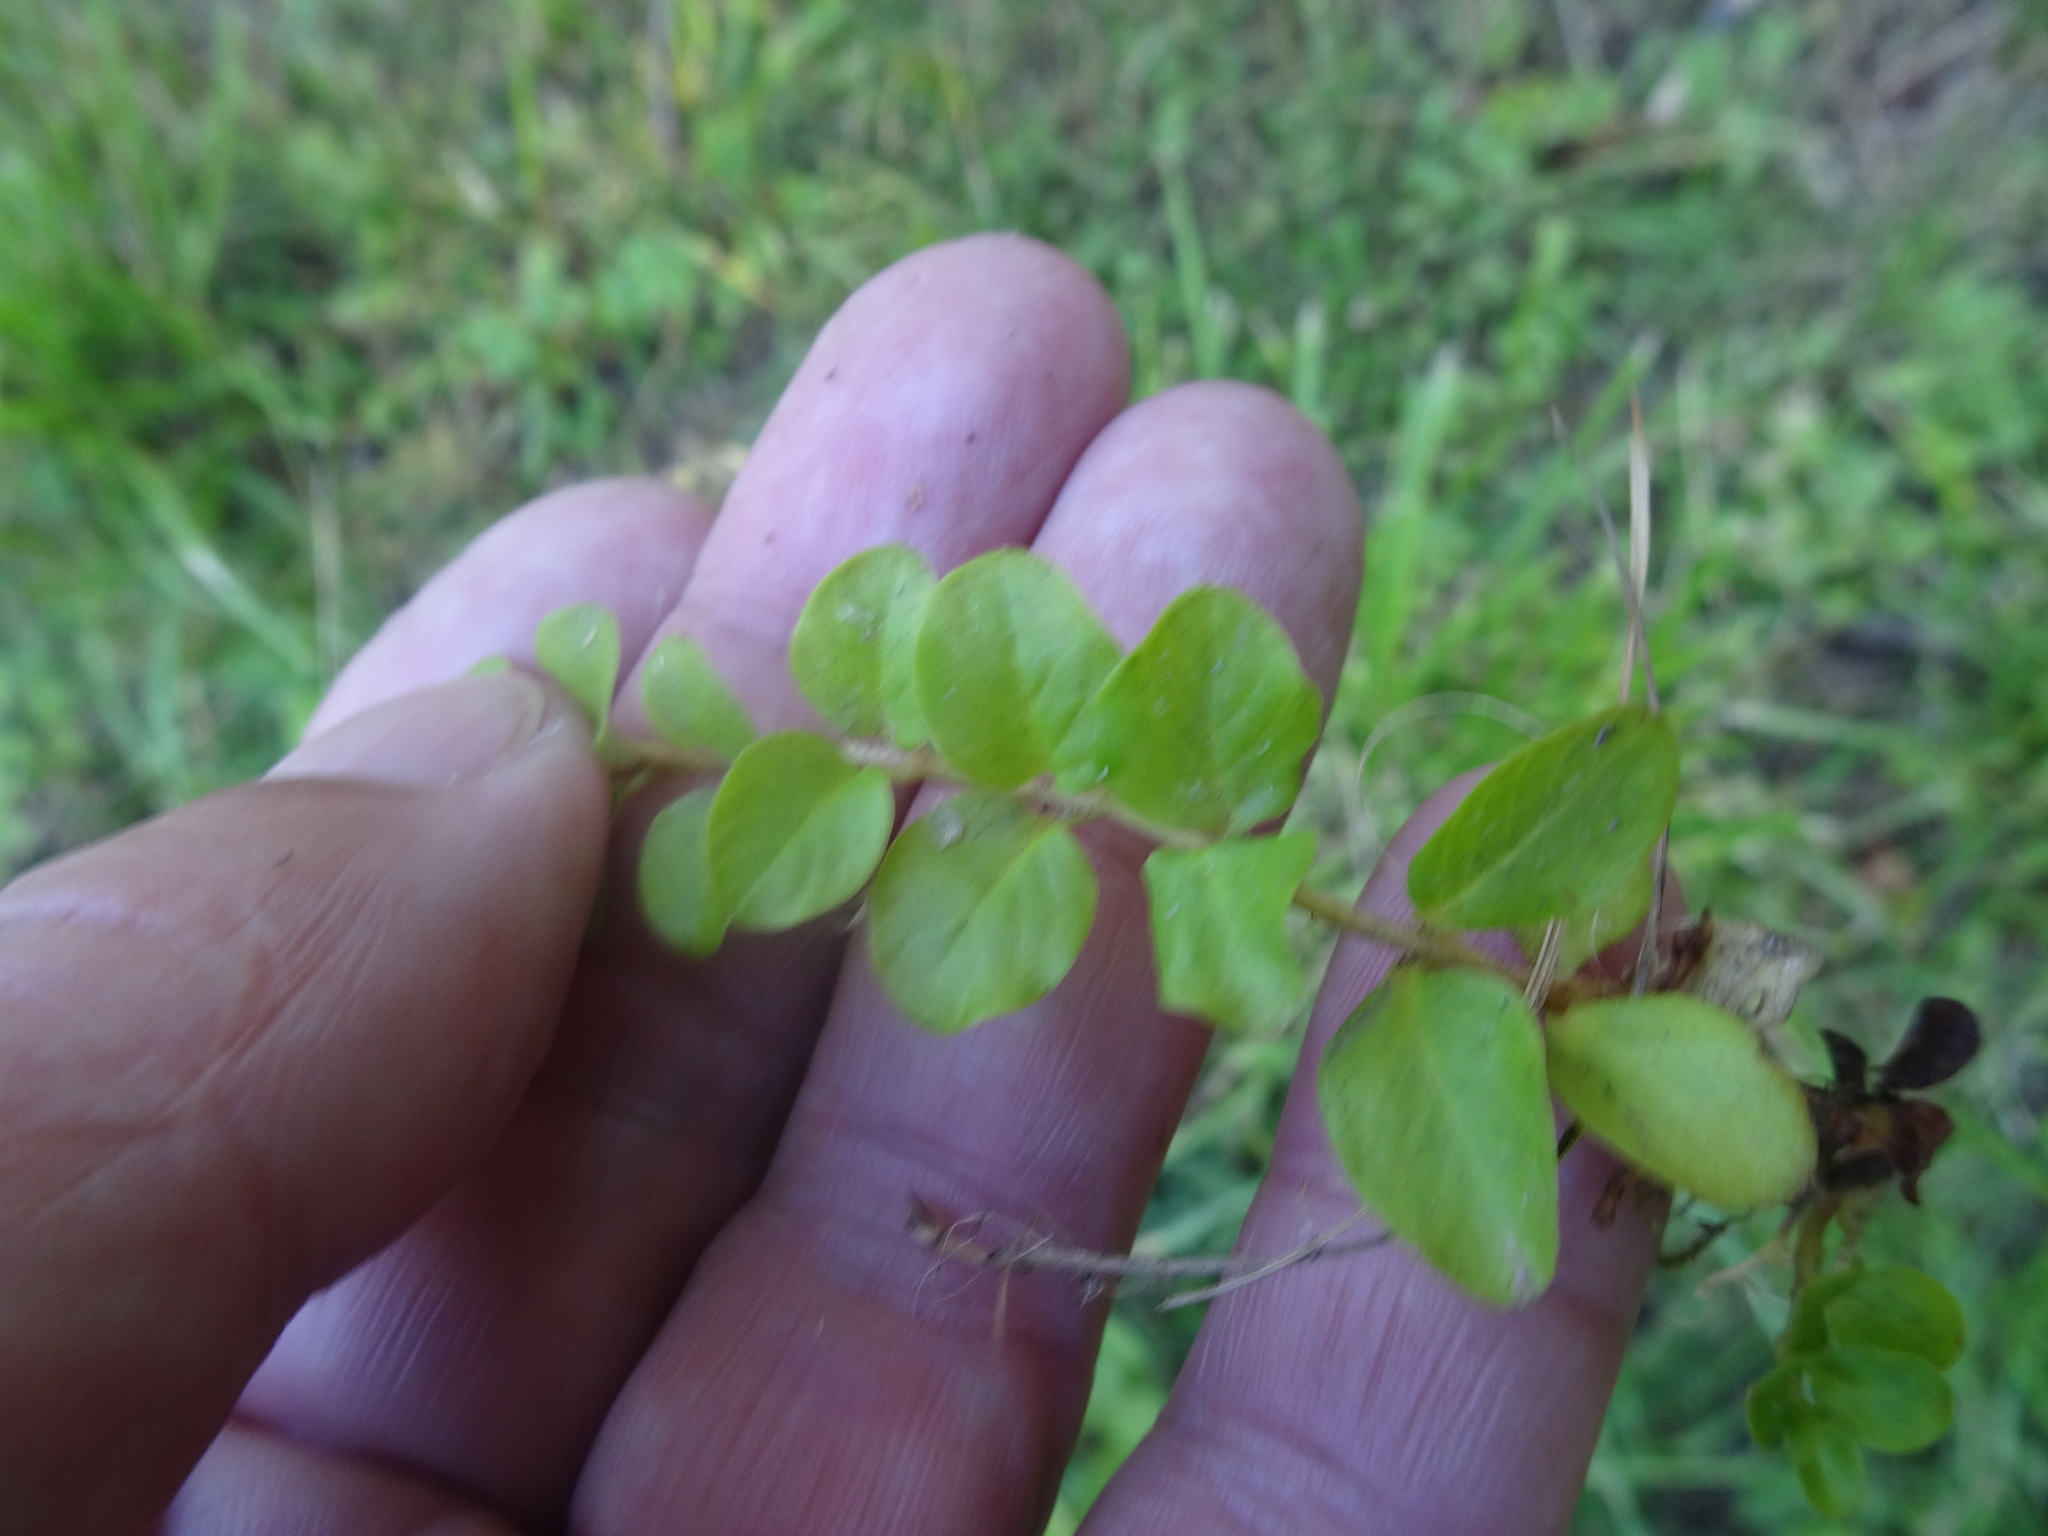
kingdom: Plantae
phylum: Tracheophyta
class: Magnoliopsida
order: Ericales
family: Primulaceae
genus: Lysimachia
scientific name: Lysimachia nummularia
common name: Moneywort
